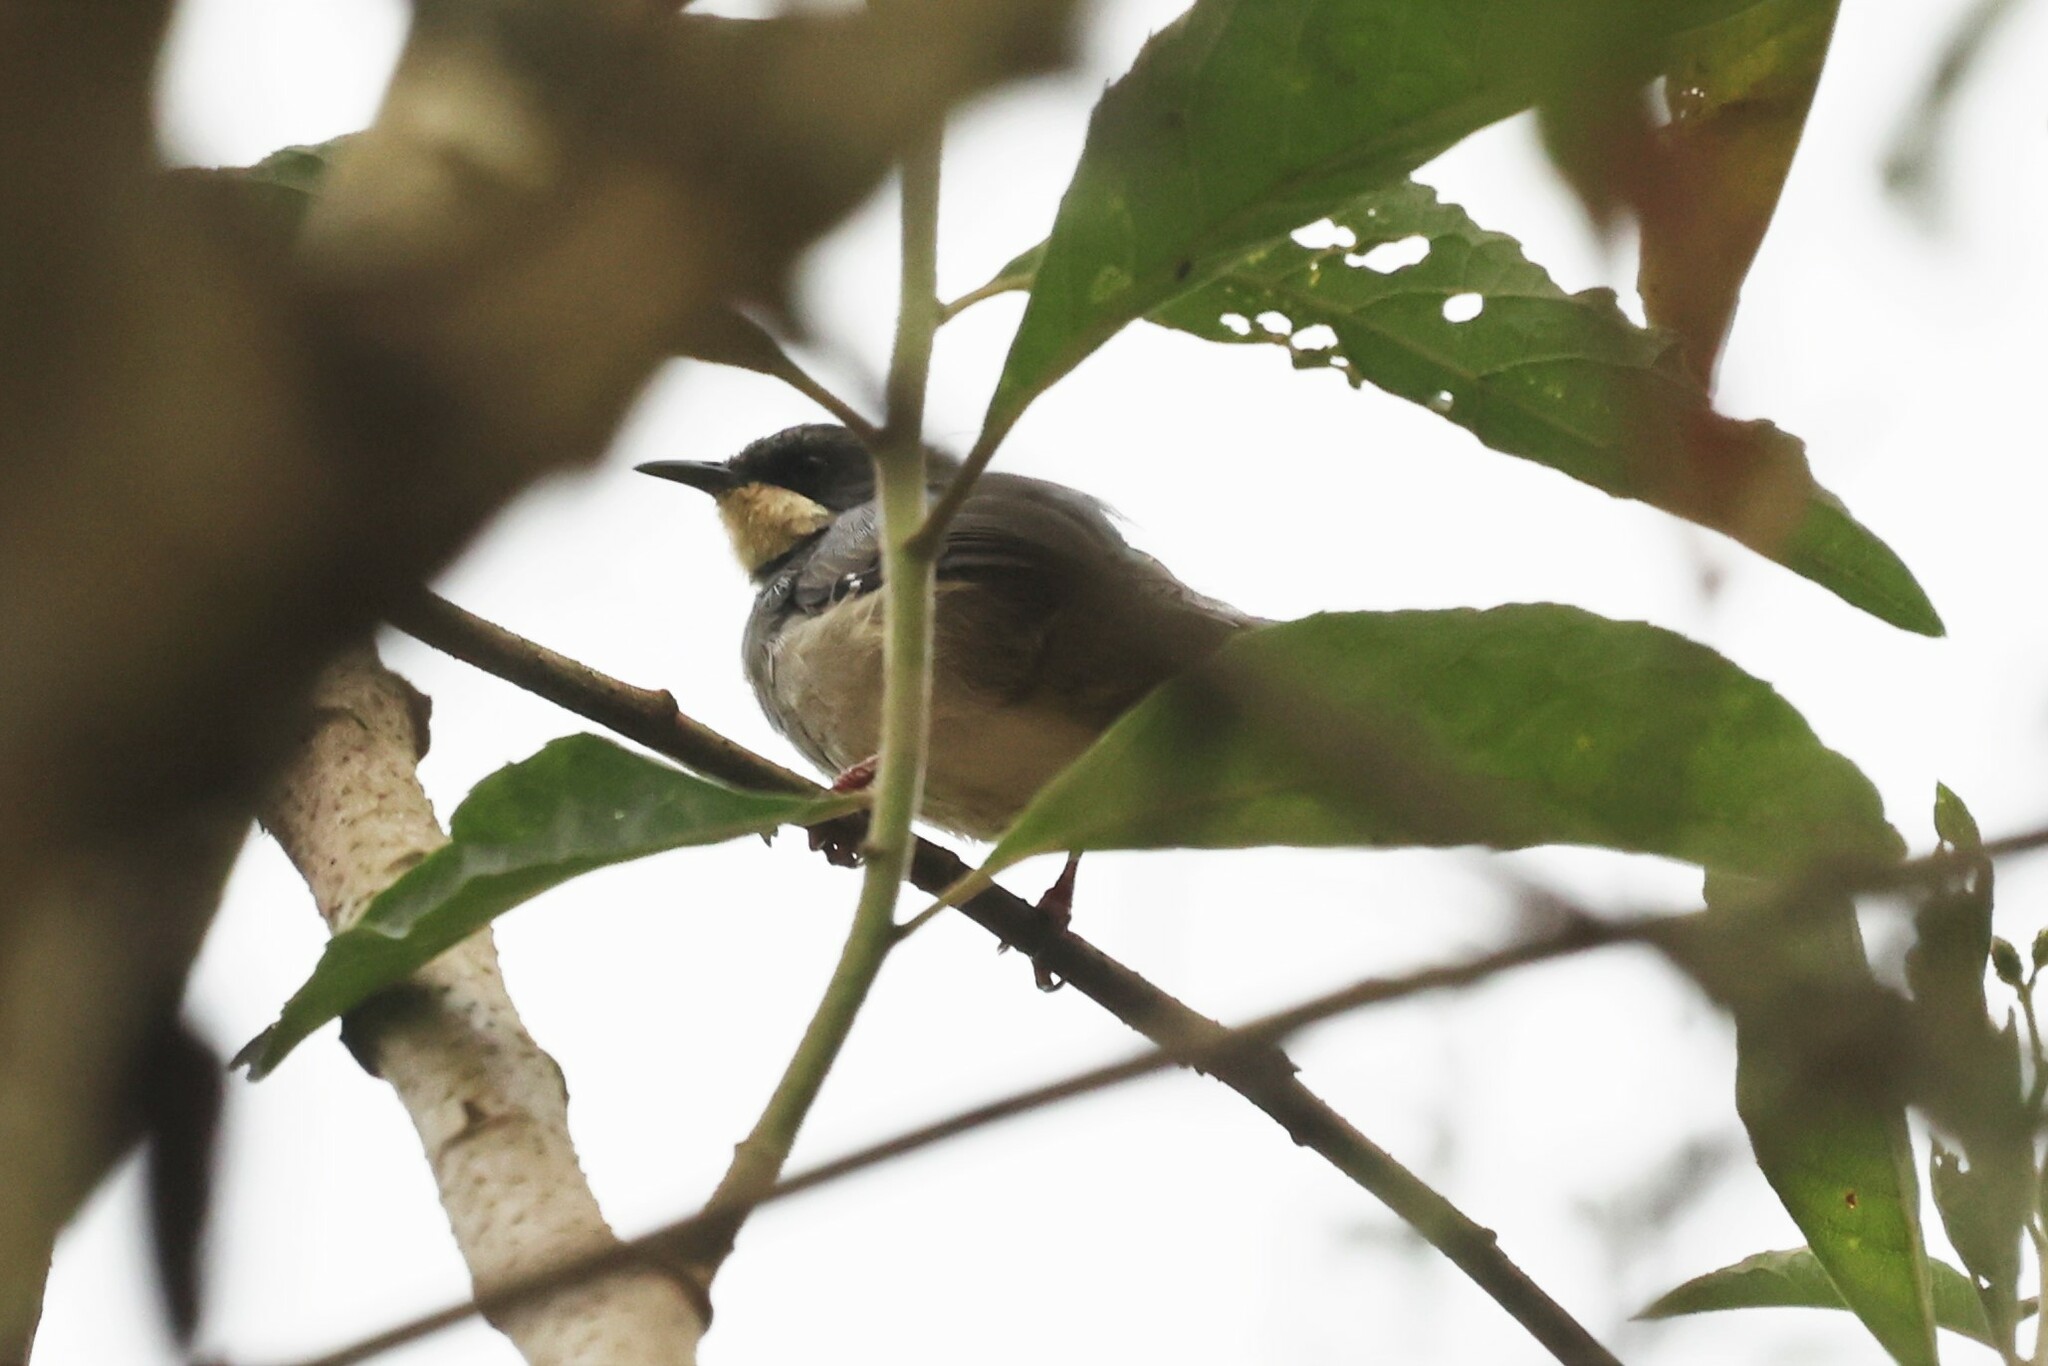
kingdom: Animalia
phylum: Chordata
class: Aves
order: Passeriformes
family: Cisticolidae
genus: Schistolais
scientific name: Schistolais leucopogon
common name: White-chinned prinia
